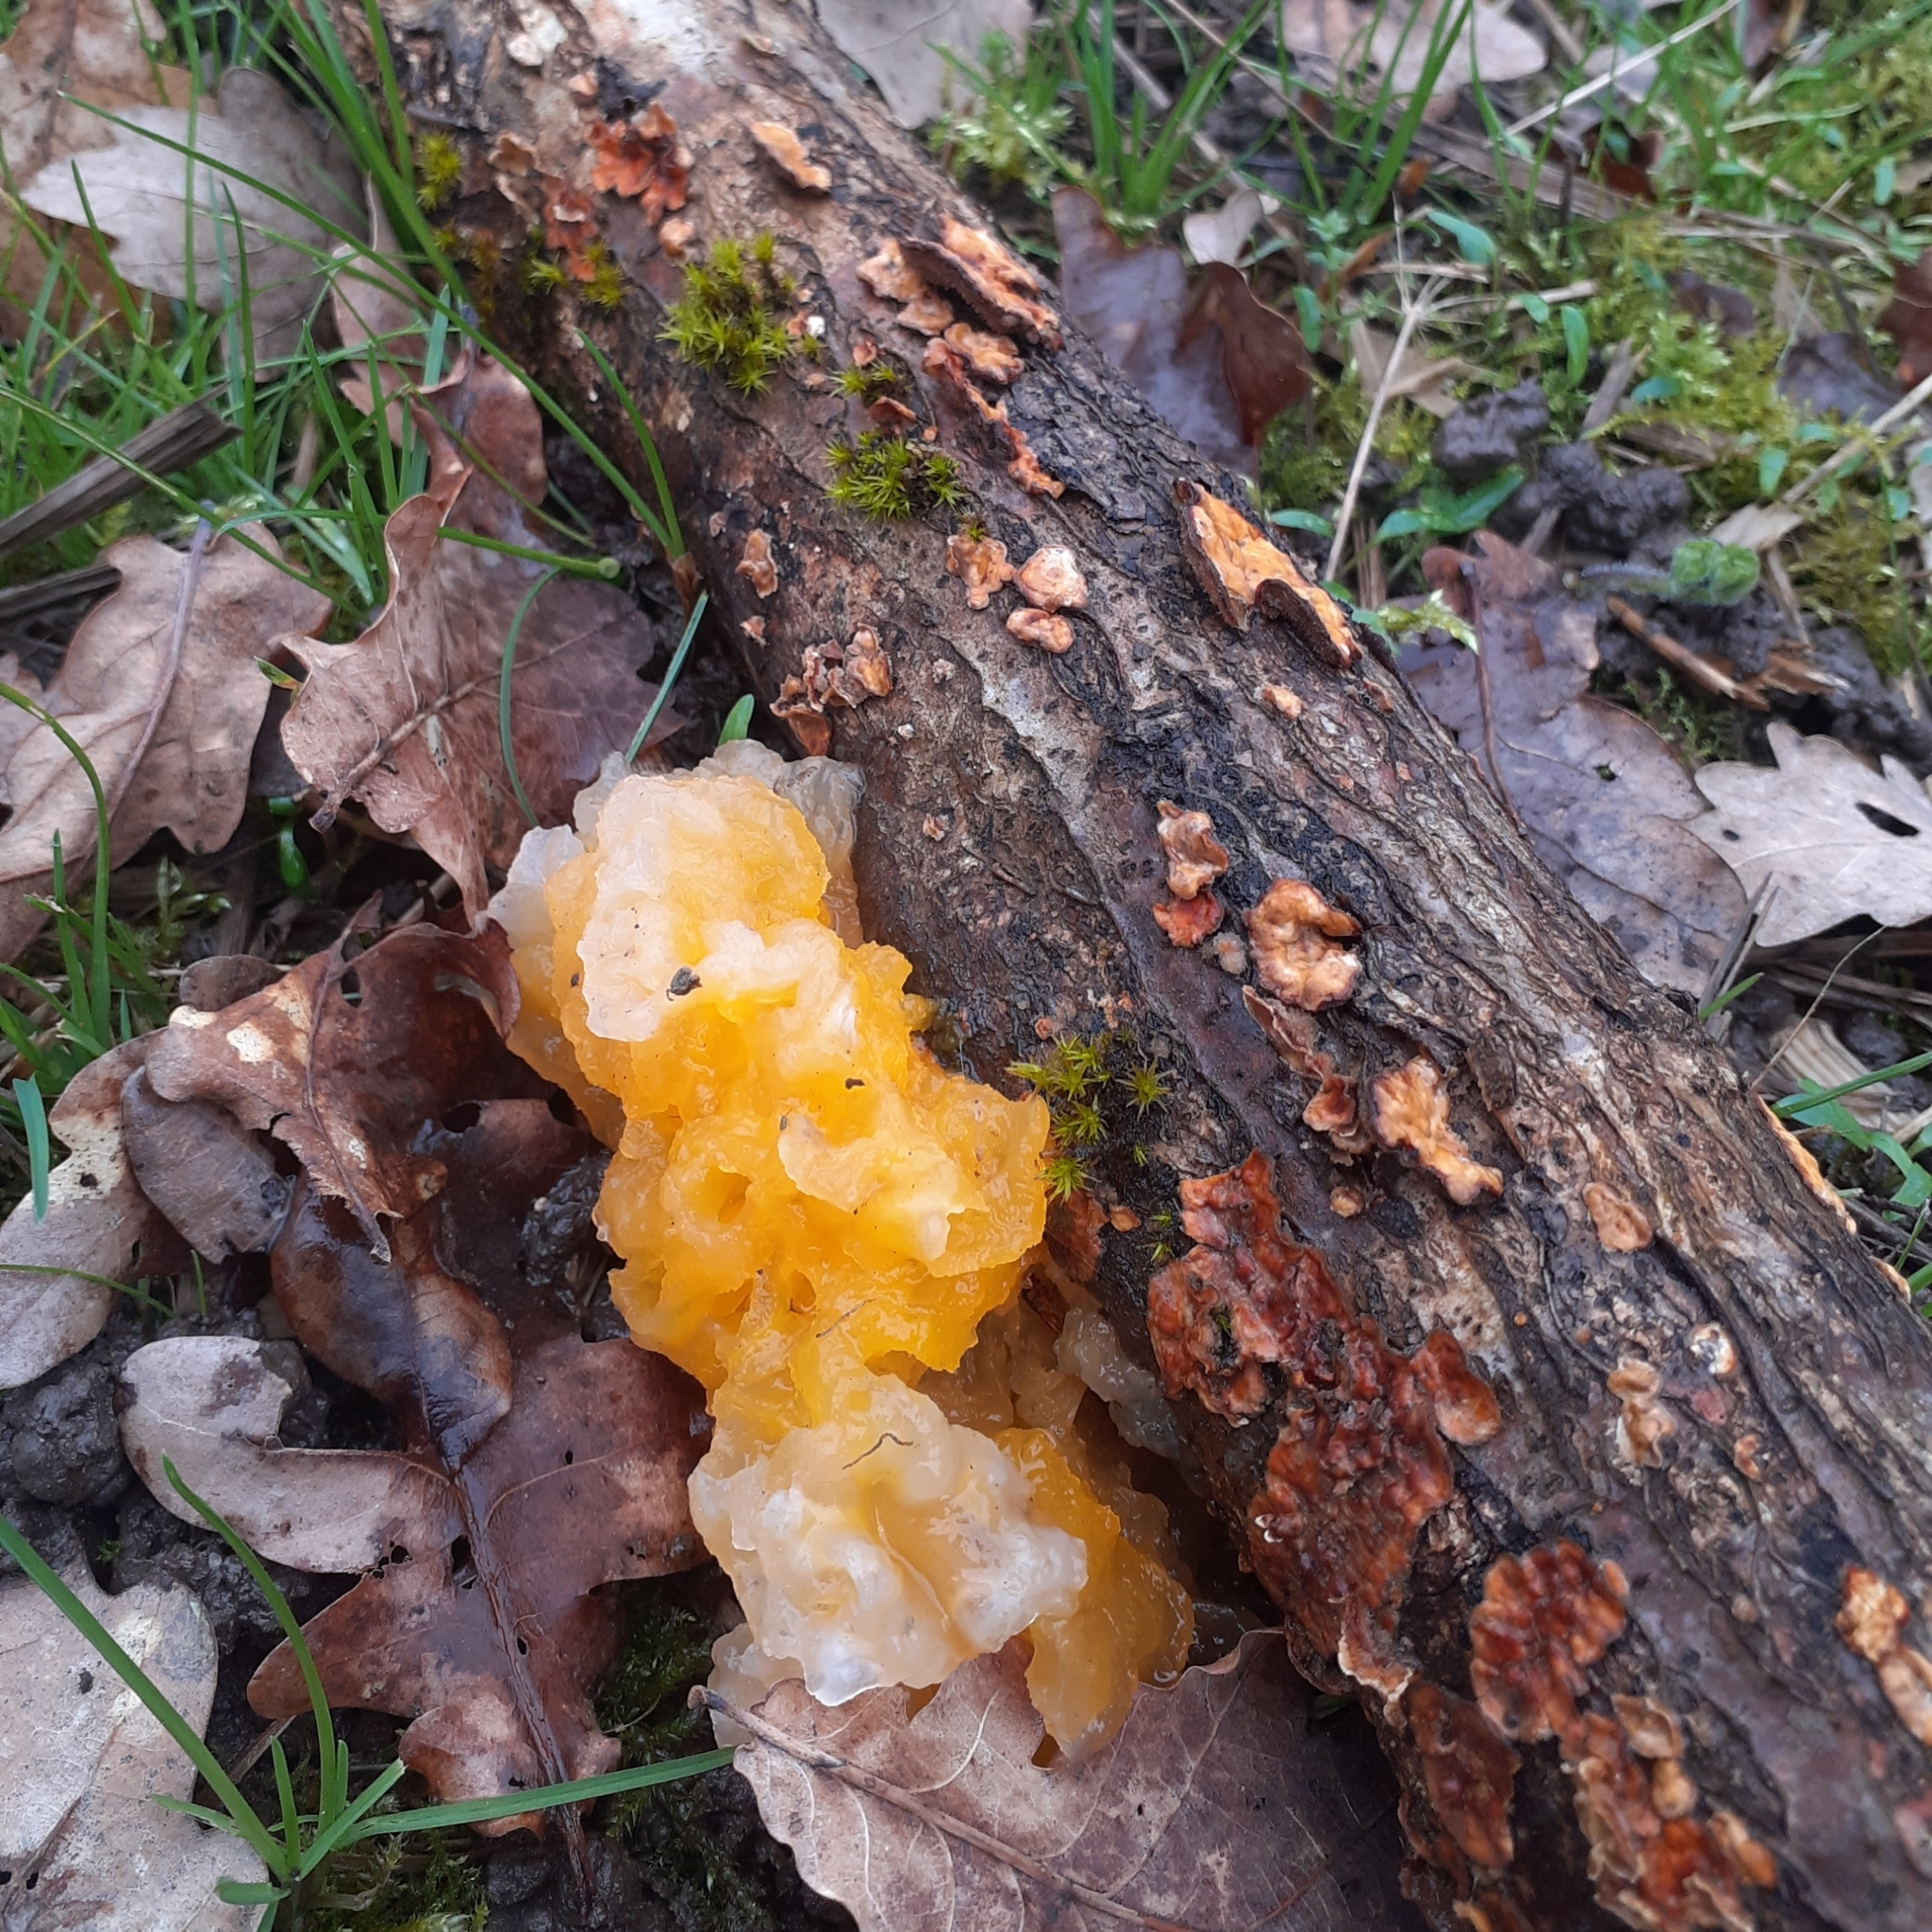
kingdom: Fungi
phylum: Basidiomycota
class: Tremellomycetes
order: Tremellales
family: Naemateliaceae
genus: Naematelia
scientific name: Naematelia aurantia
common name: Golden ear
